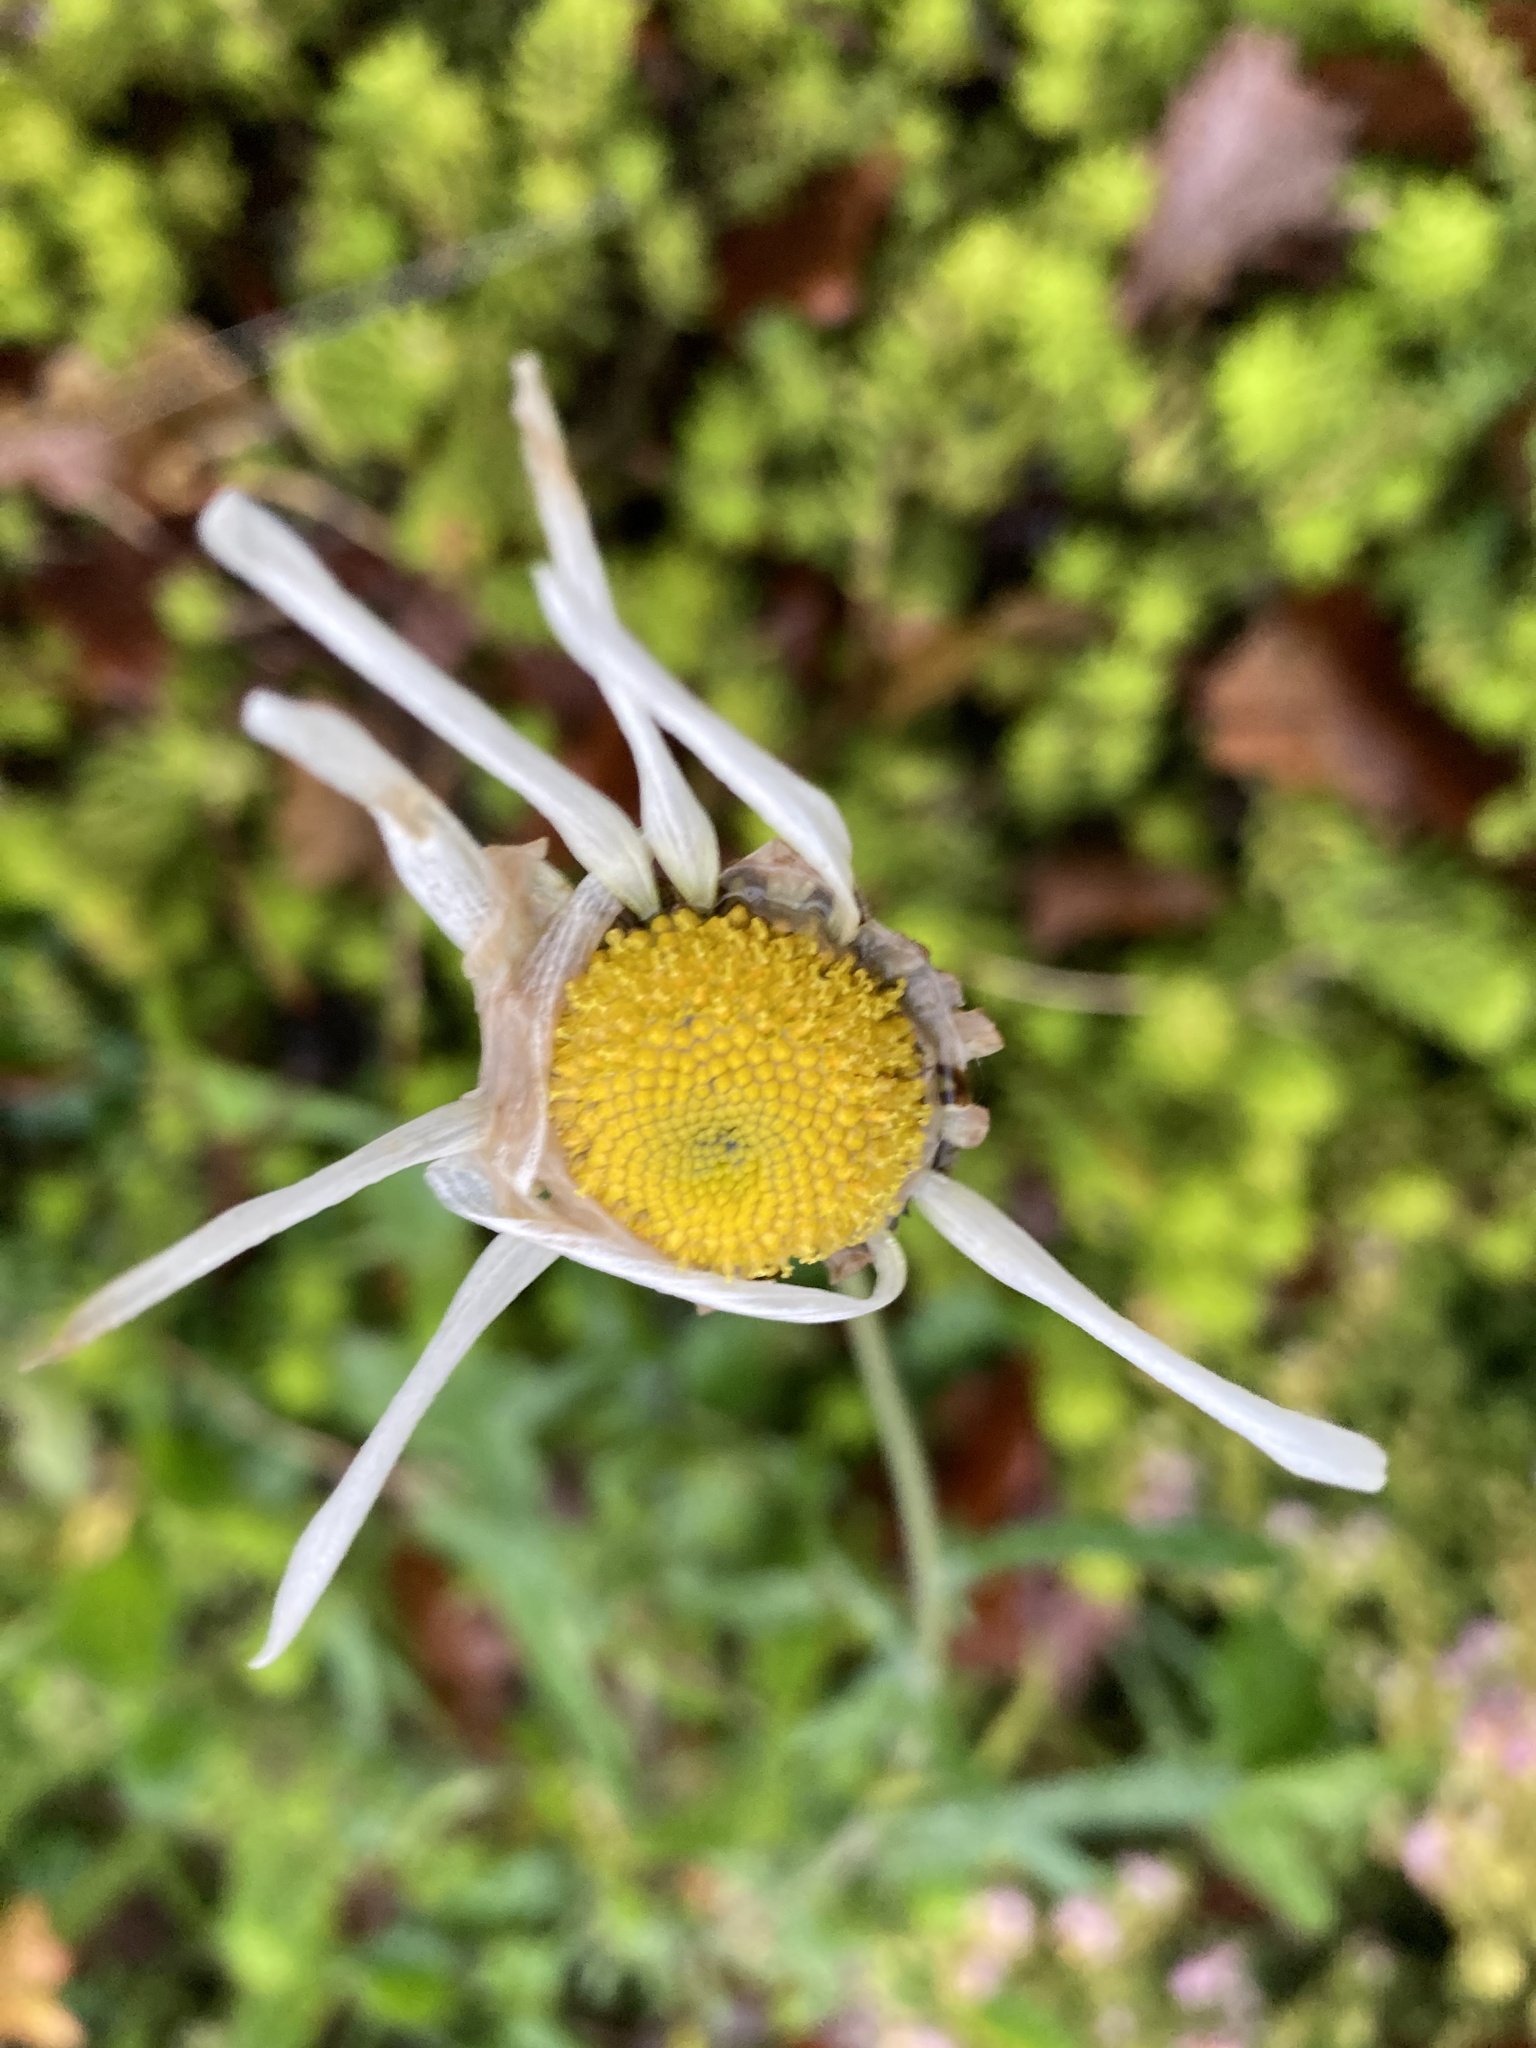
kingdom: Plantae
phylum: Tracheophyta
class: Magnoliopsida
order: Asterales
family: Asteraceae
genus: Leucanthemum
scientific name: Leucanthemum vulgare
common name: Oxeye daisy
